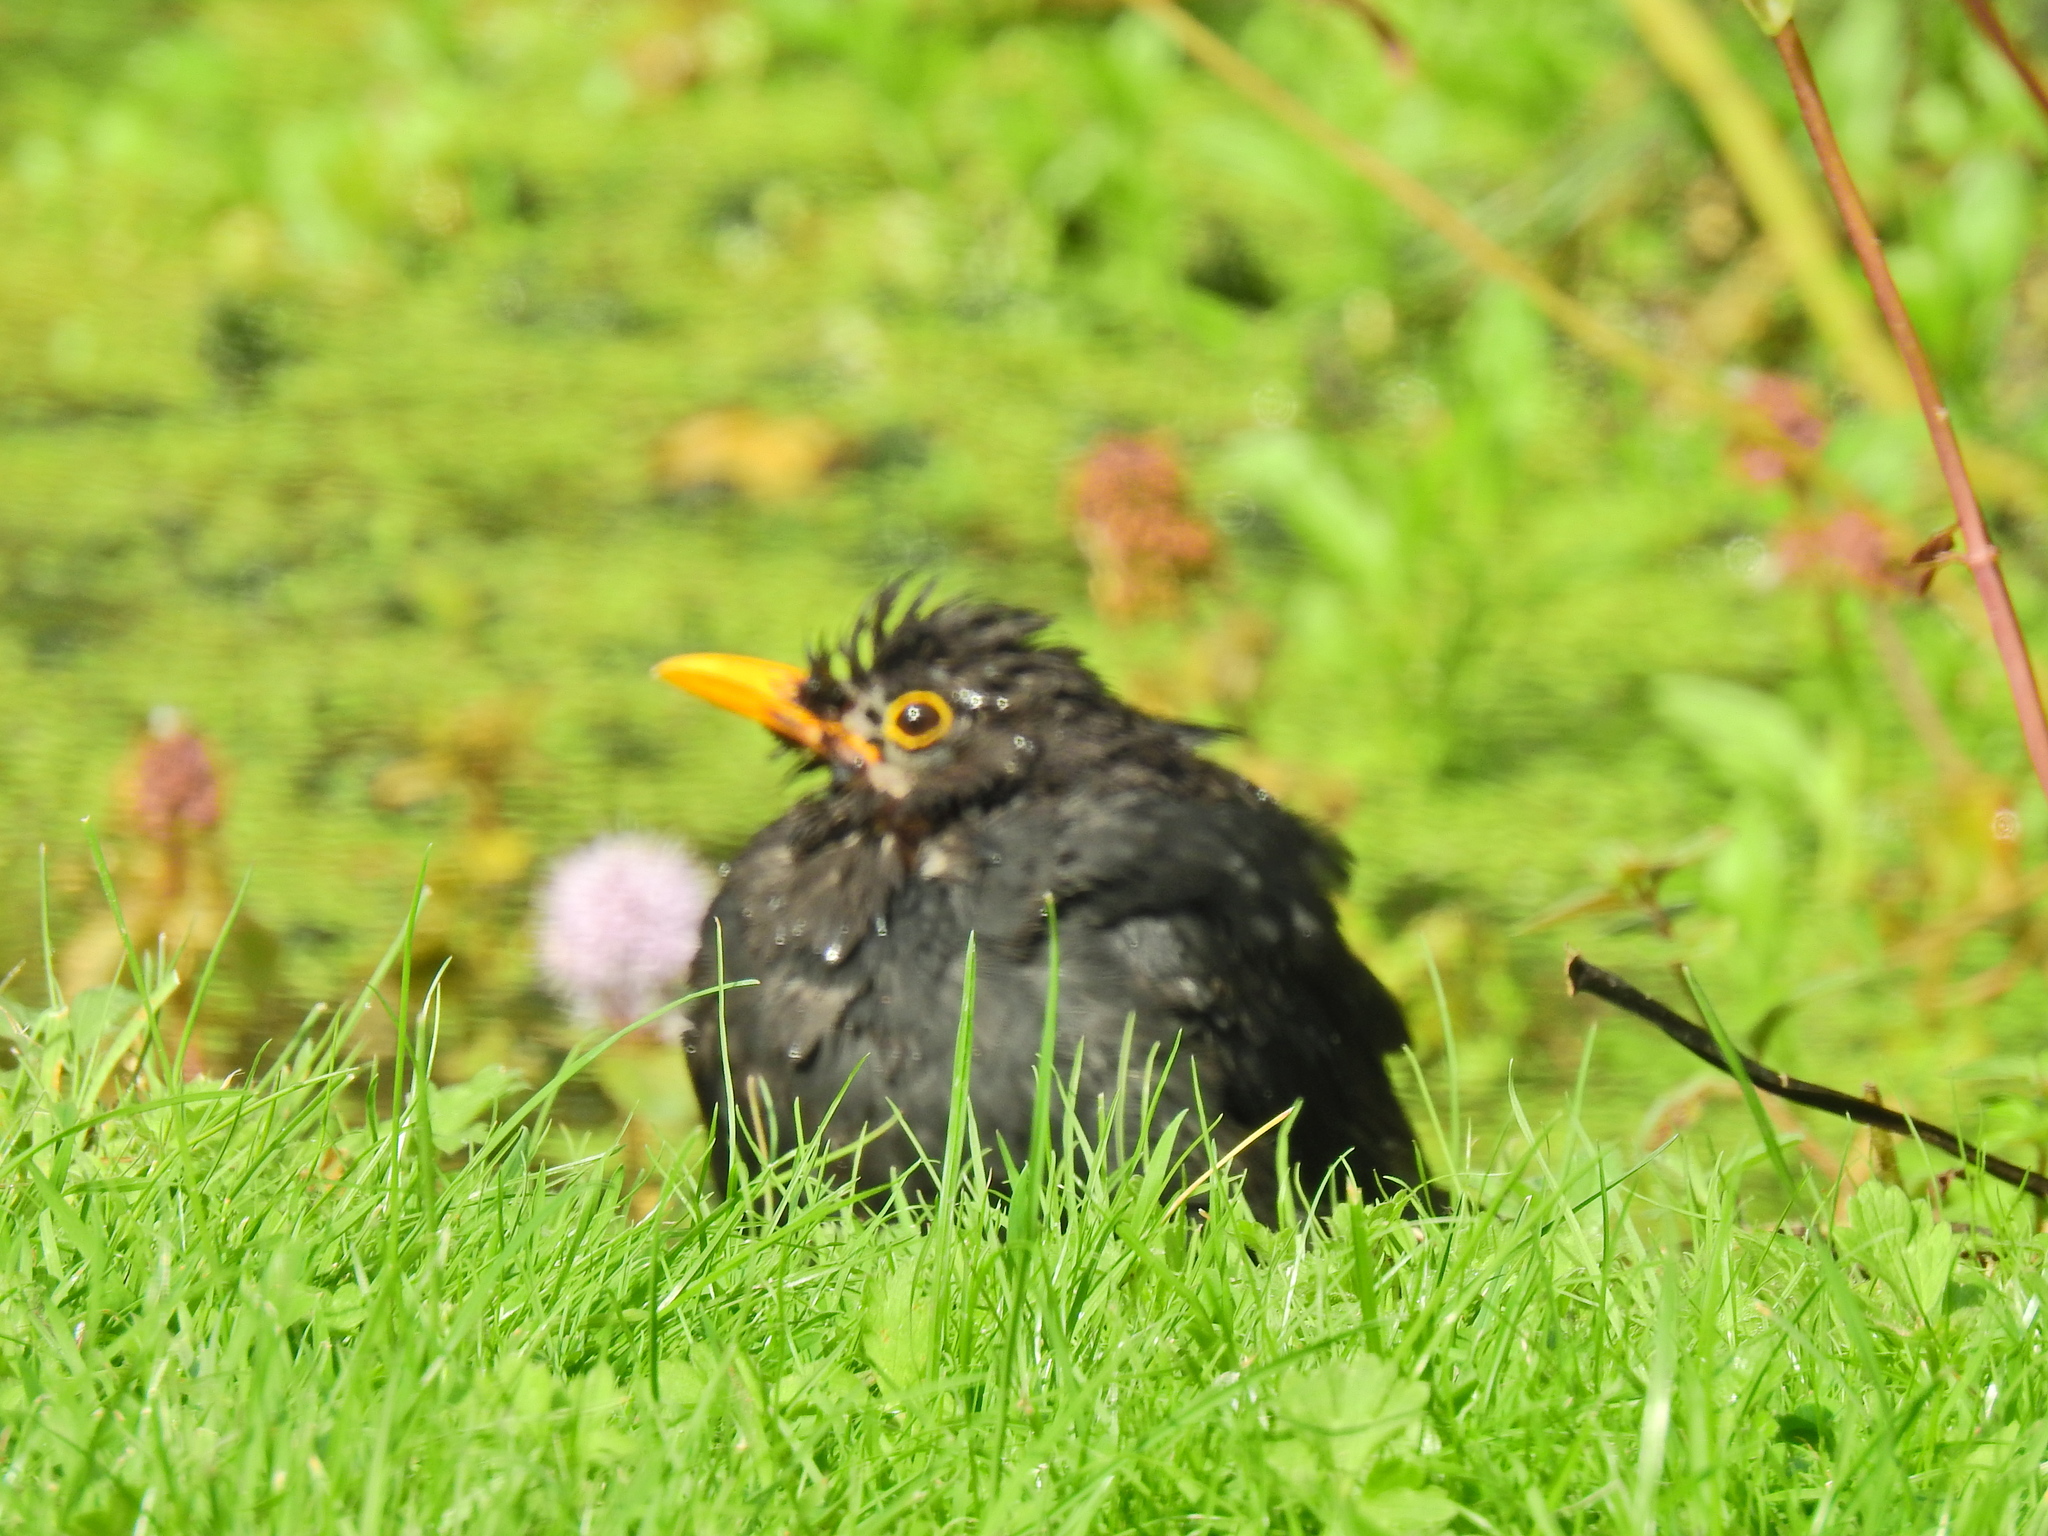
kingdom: Animalia
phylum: Chordata
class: Aves
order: Passeriformes
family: Turdidae
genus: Turdus
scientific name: Turdus merula
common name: Common blackbird
